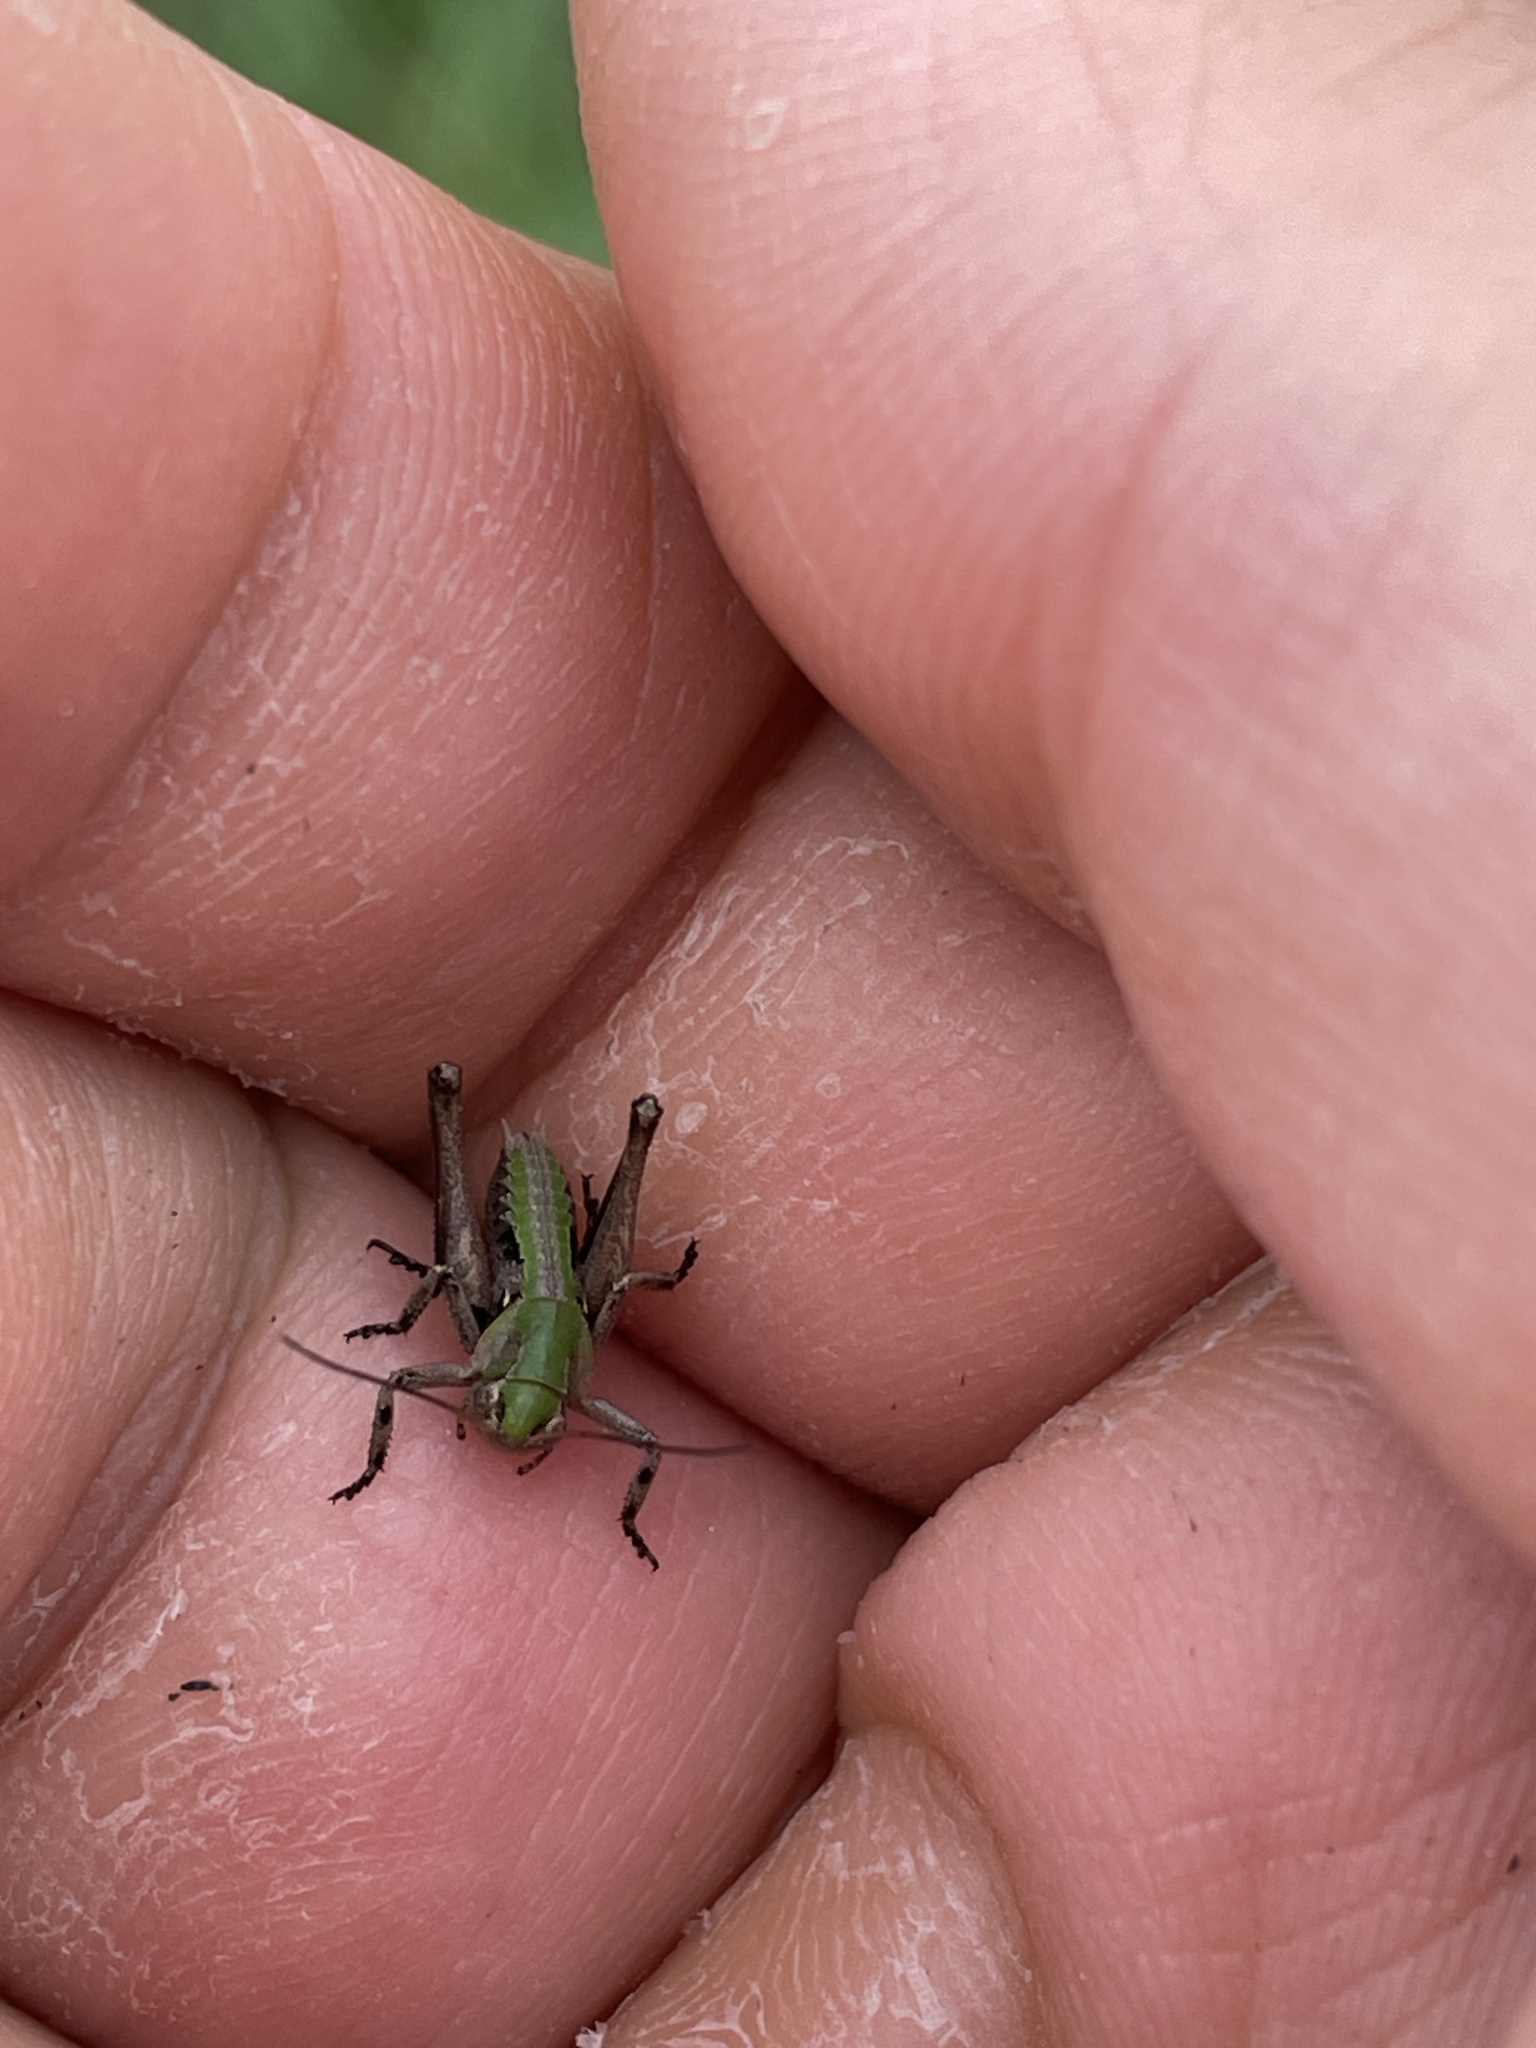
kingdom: Animalia
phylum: Arthropoda
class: Insecta
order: Orthoptera
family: Tettigoniidae
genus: Decticus
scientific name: Decticus verrucivorus
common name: Wart-biter
